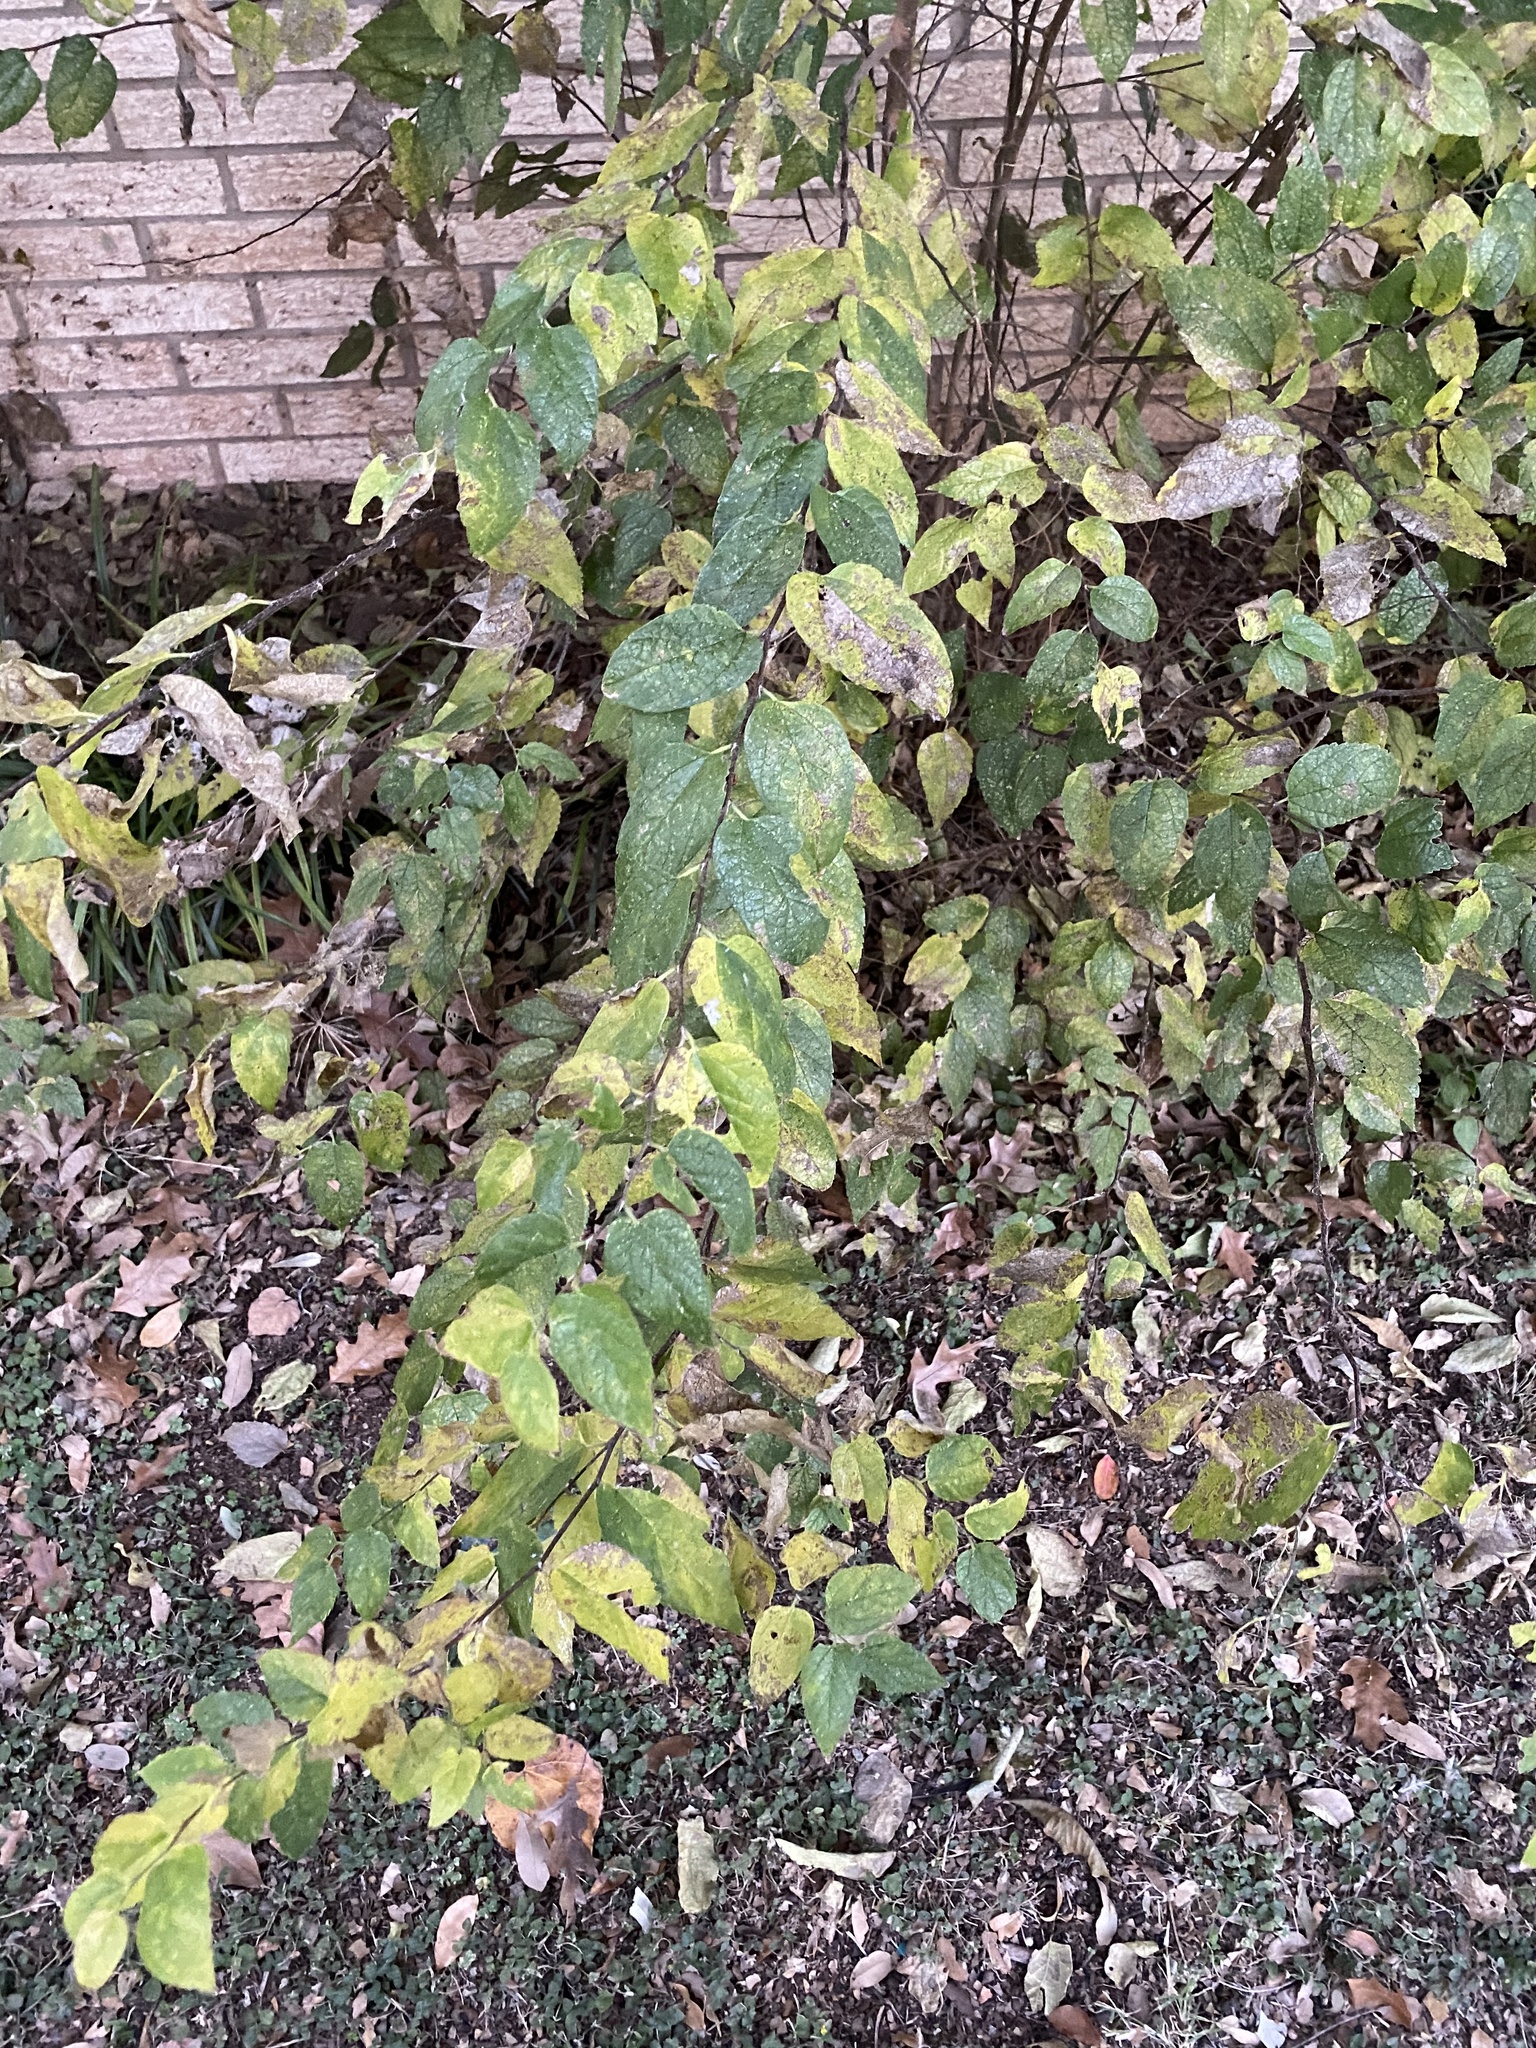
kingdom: Plantae
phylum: Tracheophyta
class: Magnoliopsida
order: Rosales
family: Cannabaceae
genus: Celtis
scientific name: Celtis laevigata
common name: Sugarberry
